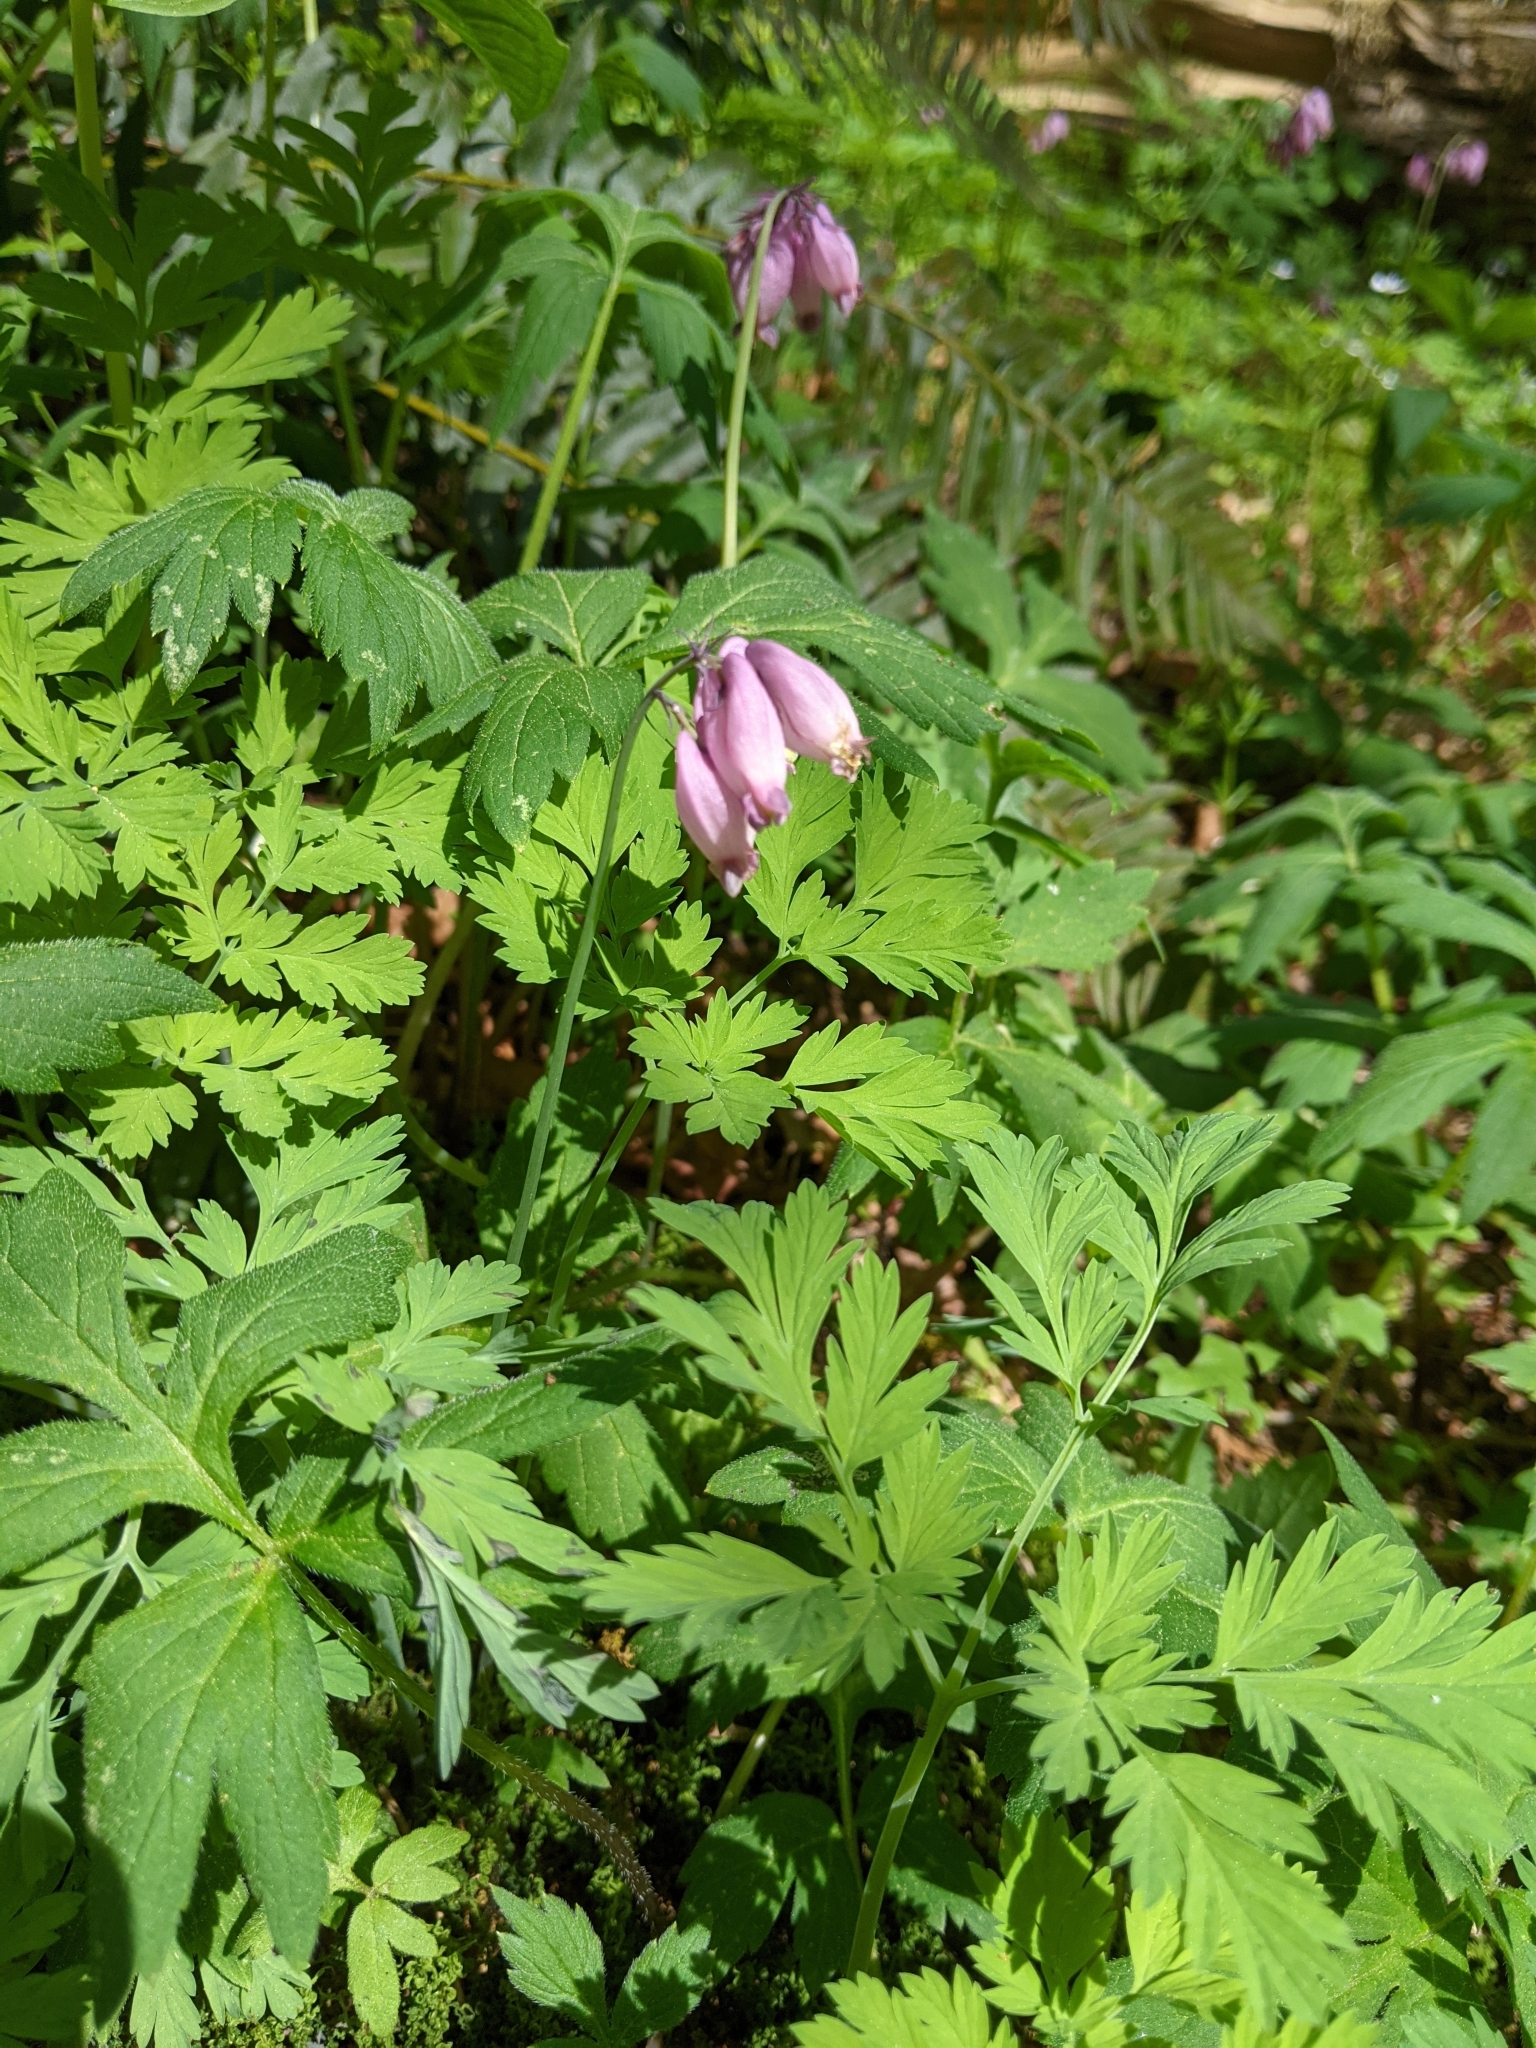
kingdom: Plantae
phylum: Tracheophyta
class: Magnoliopsida
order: Ranunculales
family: Papaveraceae
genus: Dicentra
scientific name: Dicentra formosa
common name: Bleeding-heart
